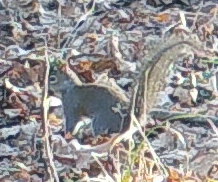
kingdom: Animalia
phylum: Chordata
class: Mammalia
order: Rodentia
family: Sciuridae
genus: Sciurus
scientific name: Sciurus carolinensis
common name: Eastern gray squirrel
